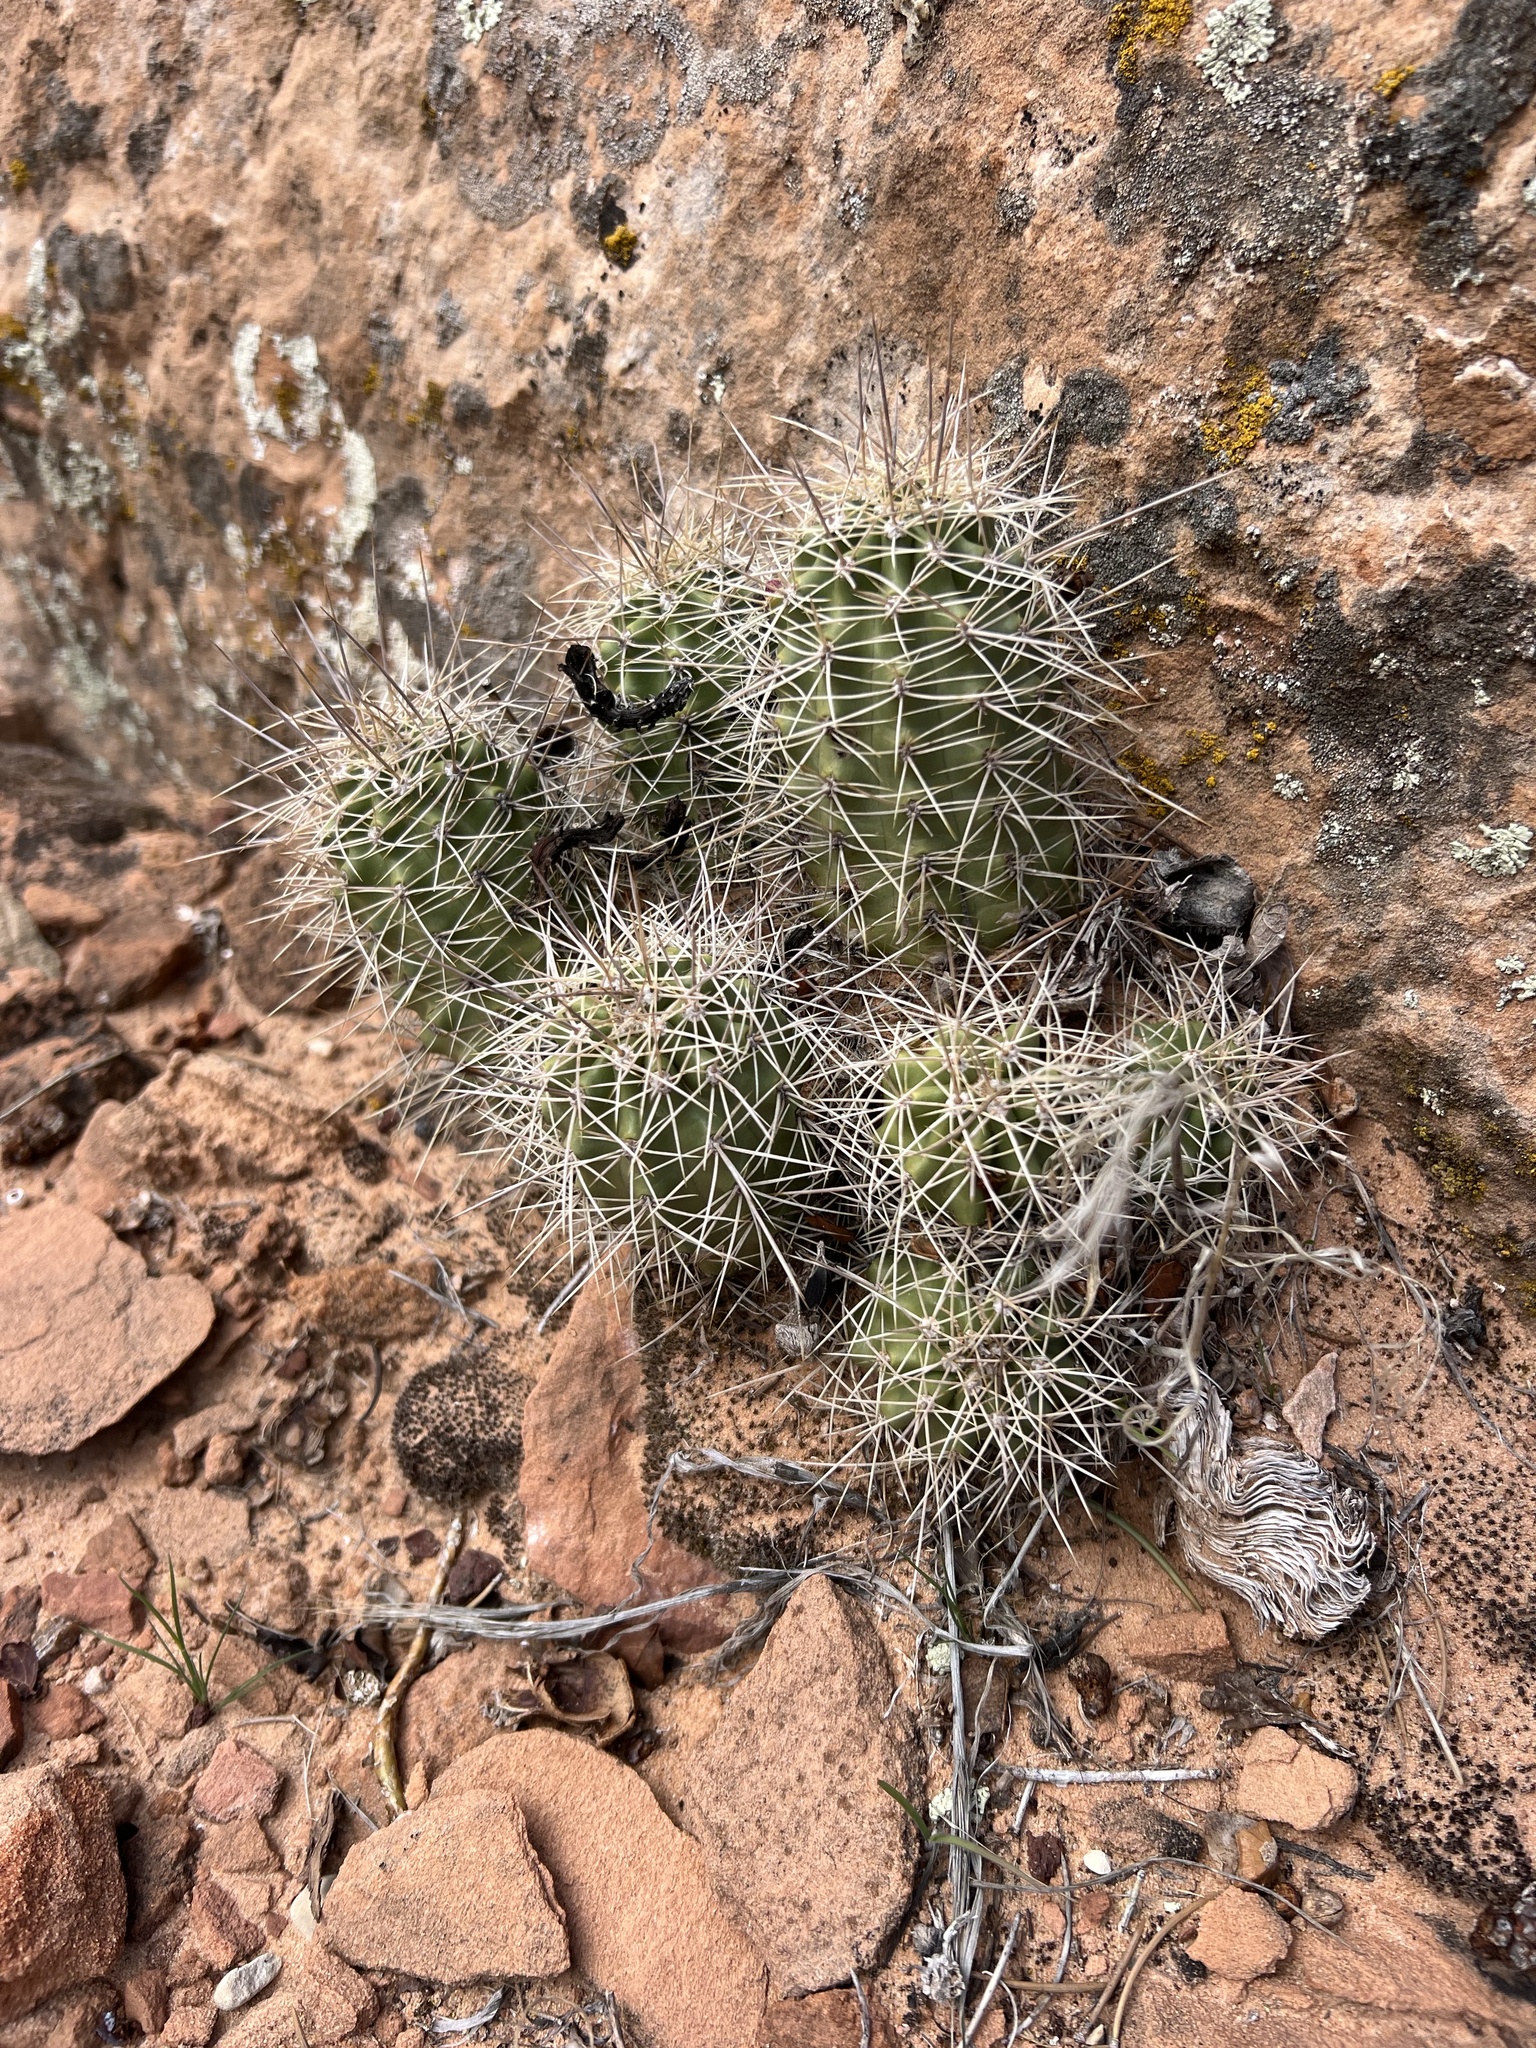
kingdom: Plantae
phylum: Tracheophyta
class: Magnoliopsida
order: Caryophyllales
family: Cactaceae
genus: Echinocereus
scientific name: Echinocereus triglochidiatus
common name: Claretcup hedgehog
